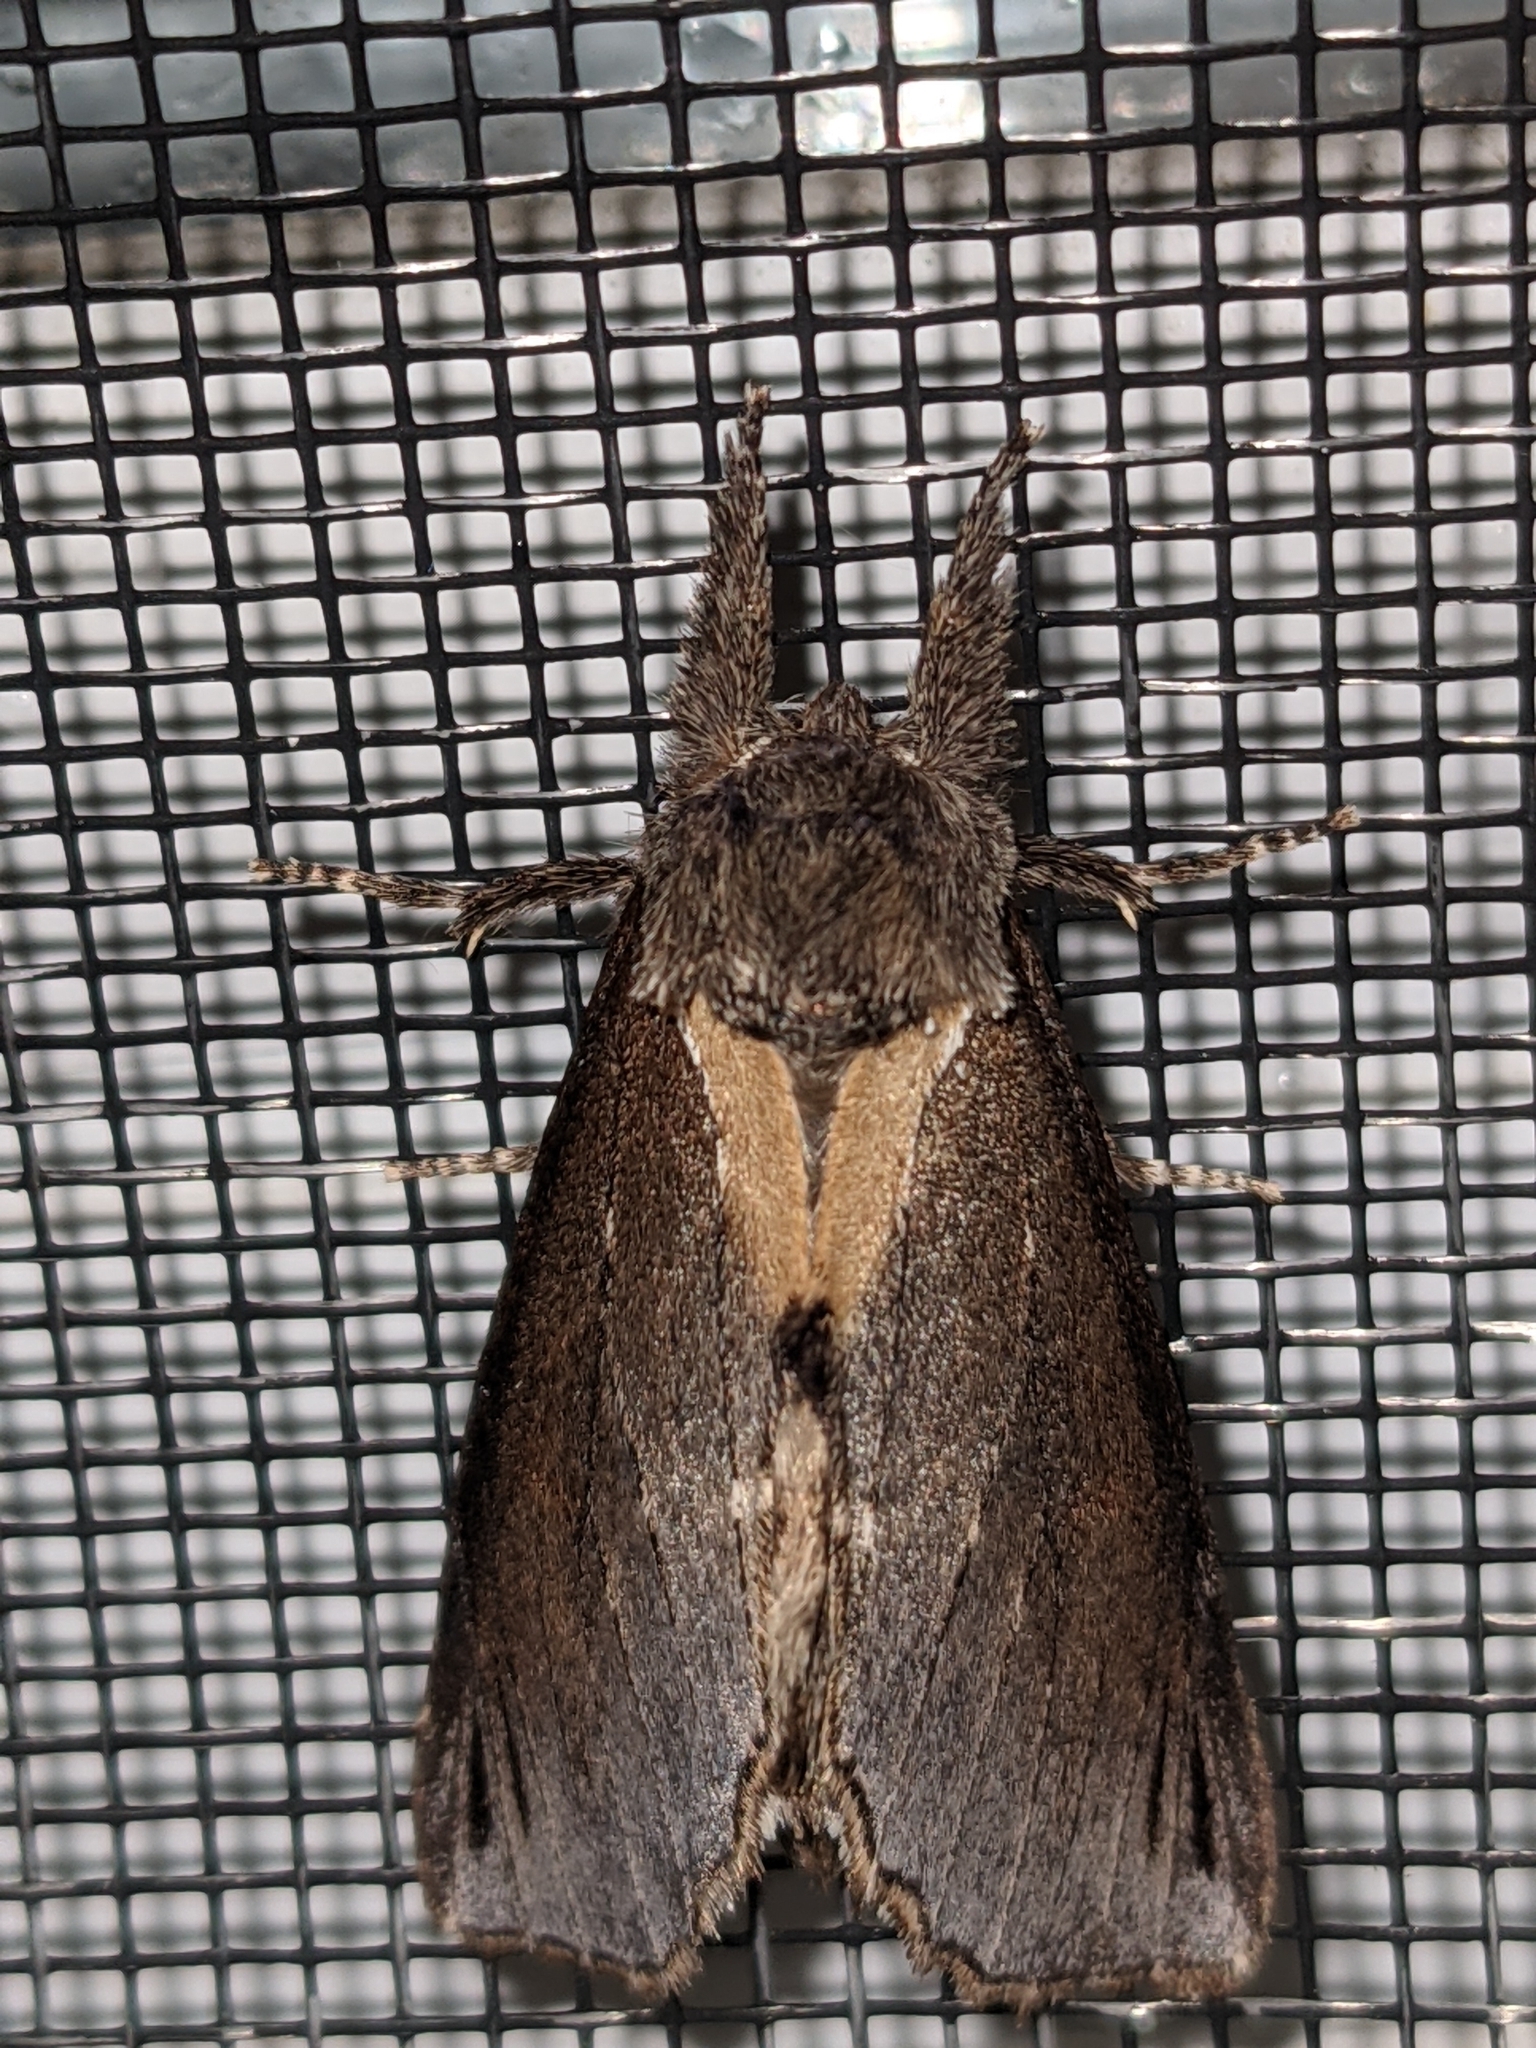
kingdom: Animalia
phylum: Arthropoda
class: Insecta
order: Lepidoptera
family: Notodontidae
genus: Pheosidea
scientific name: Pheosidea elegans
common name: Elegant prominent
